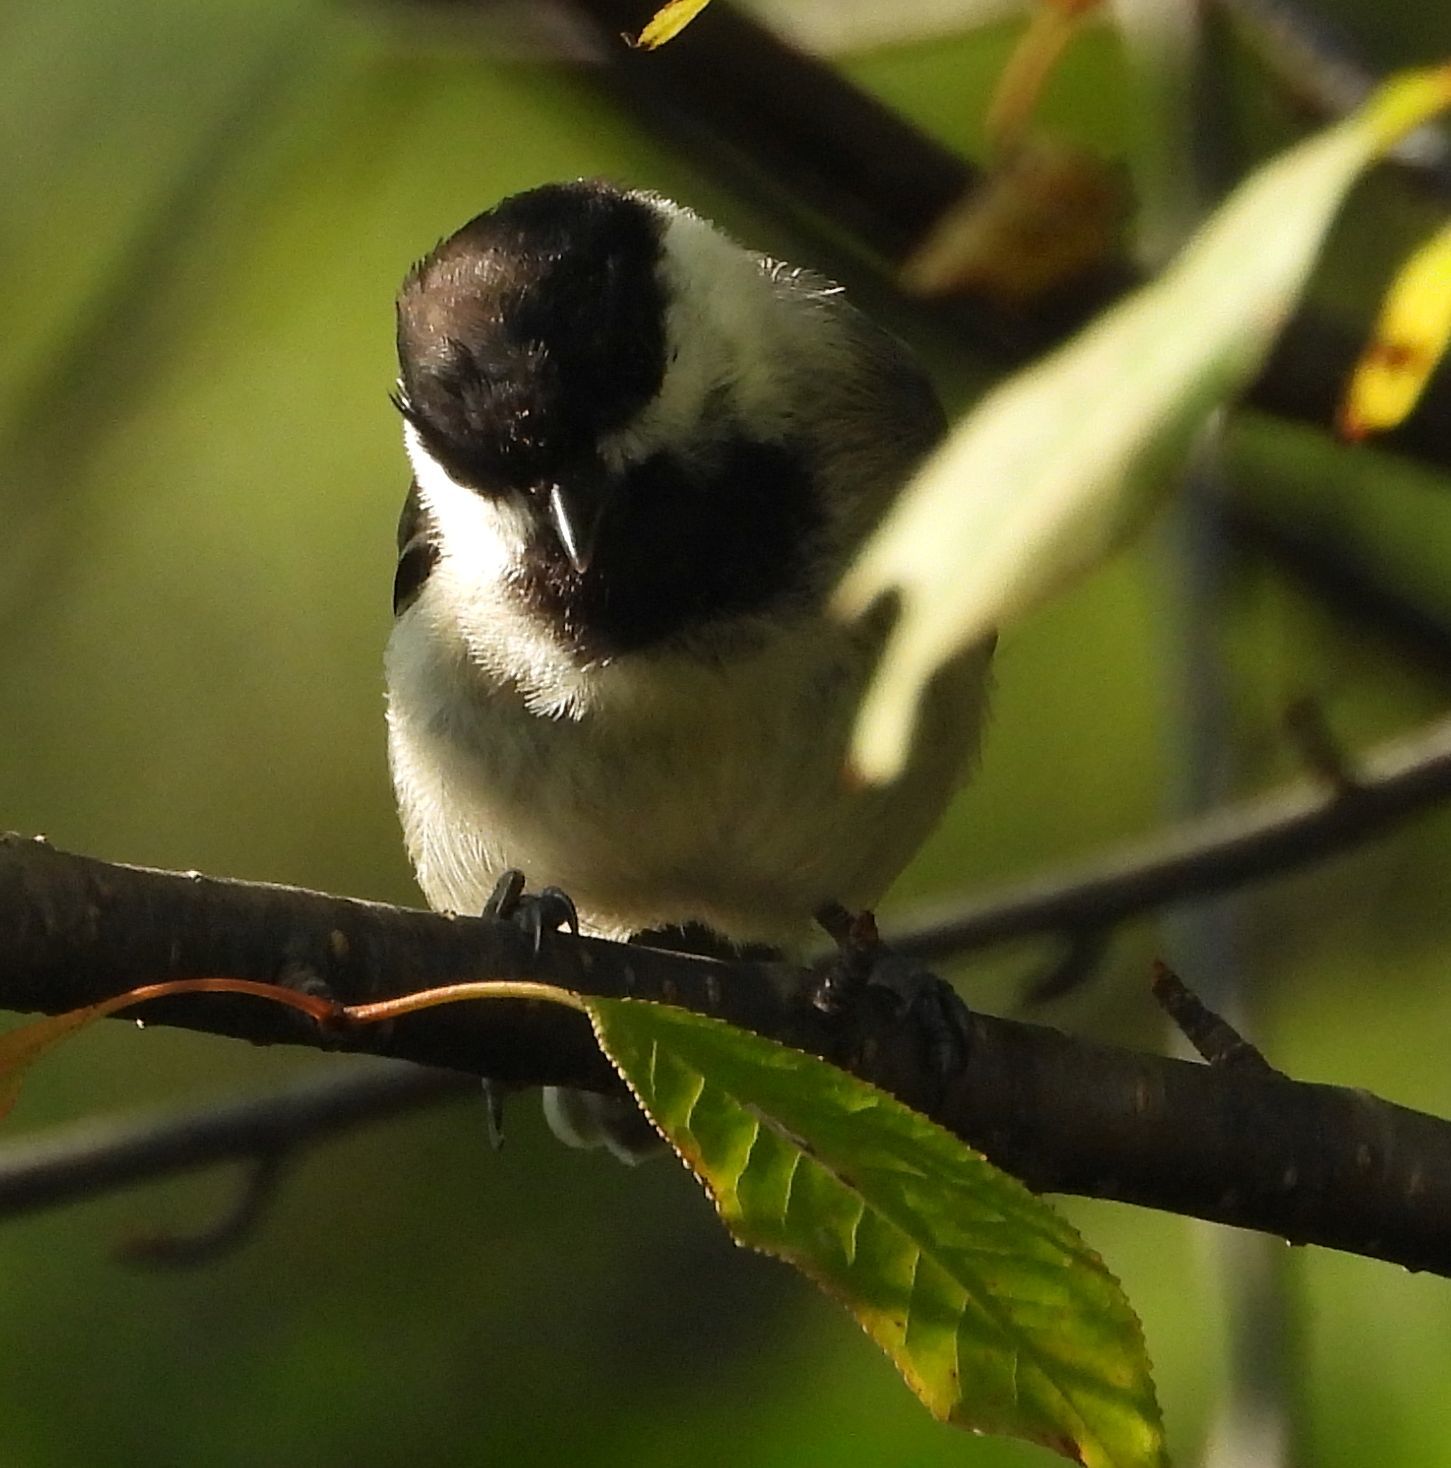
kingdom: Animalia
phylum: Chordata
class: Aves
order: Passeriformes
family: Paridae
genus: Poecile
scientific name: Poecile atricapillus
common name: Black-capped chickadee
